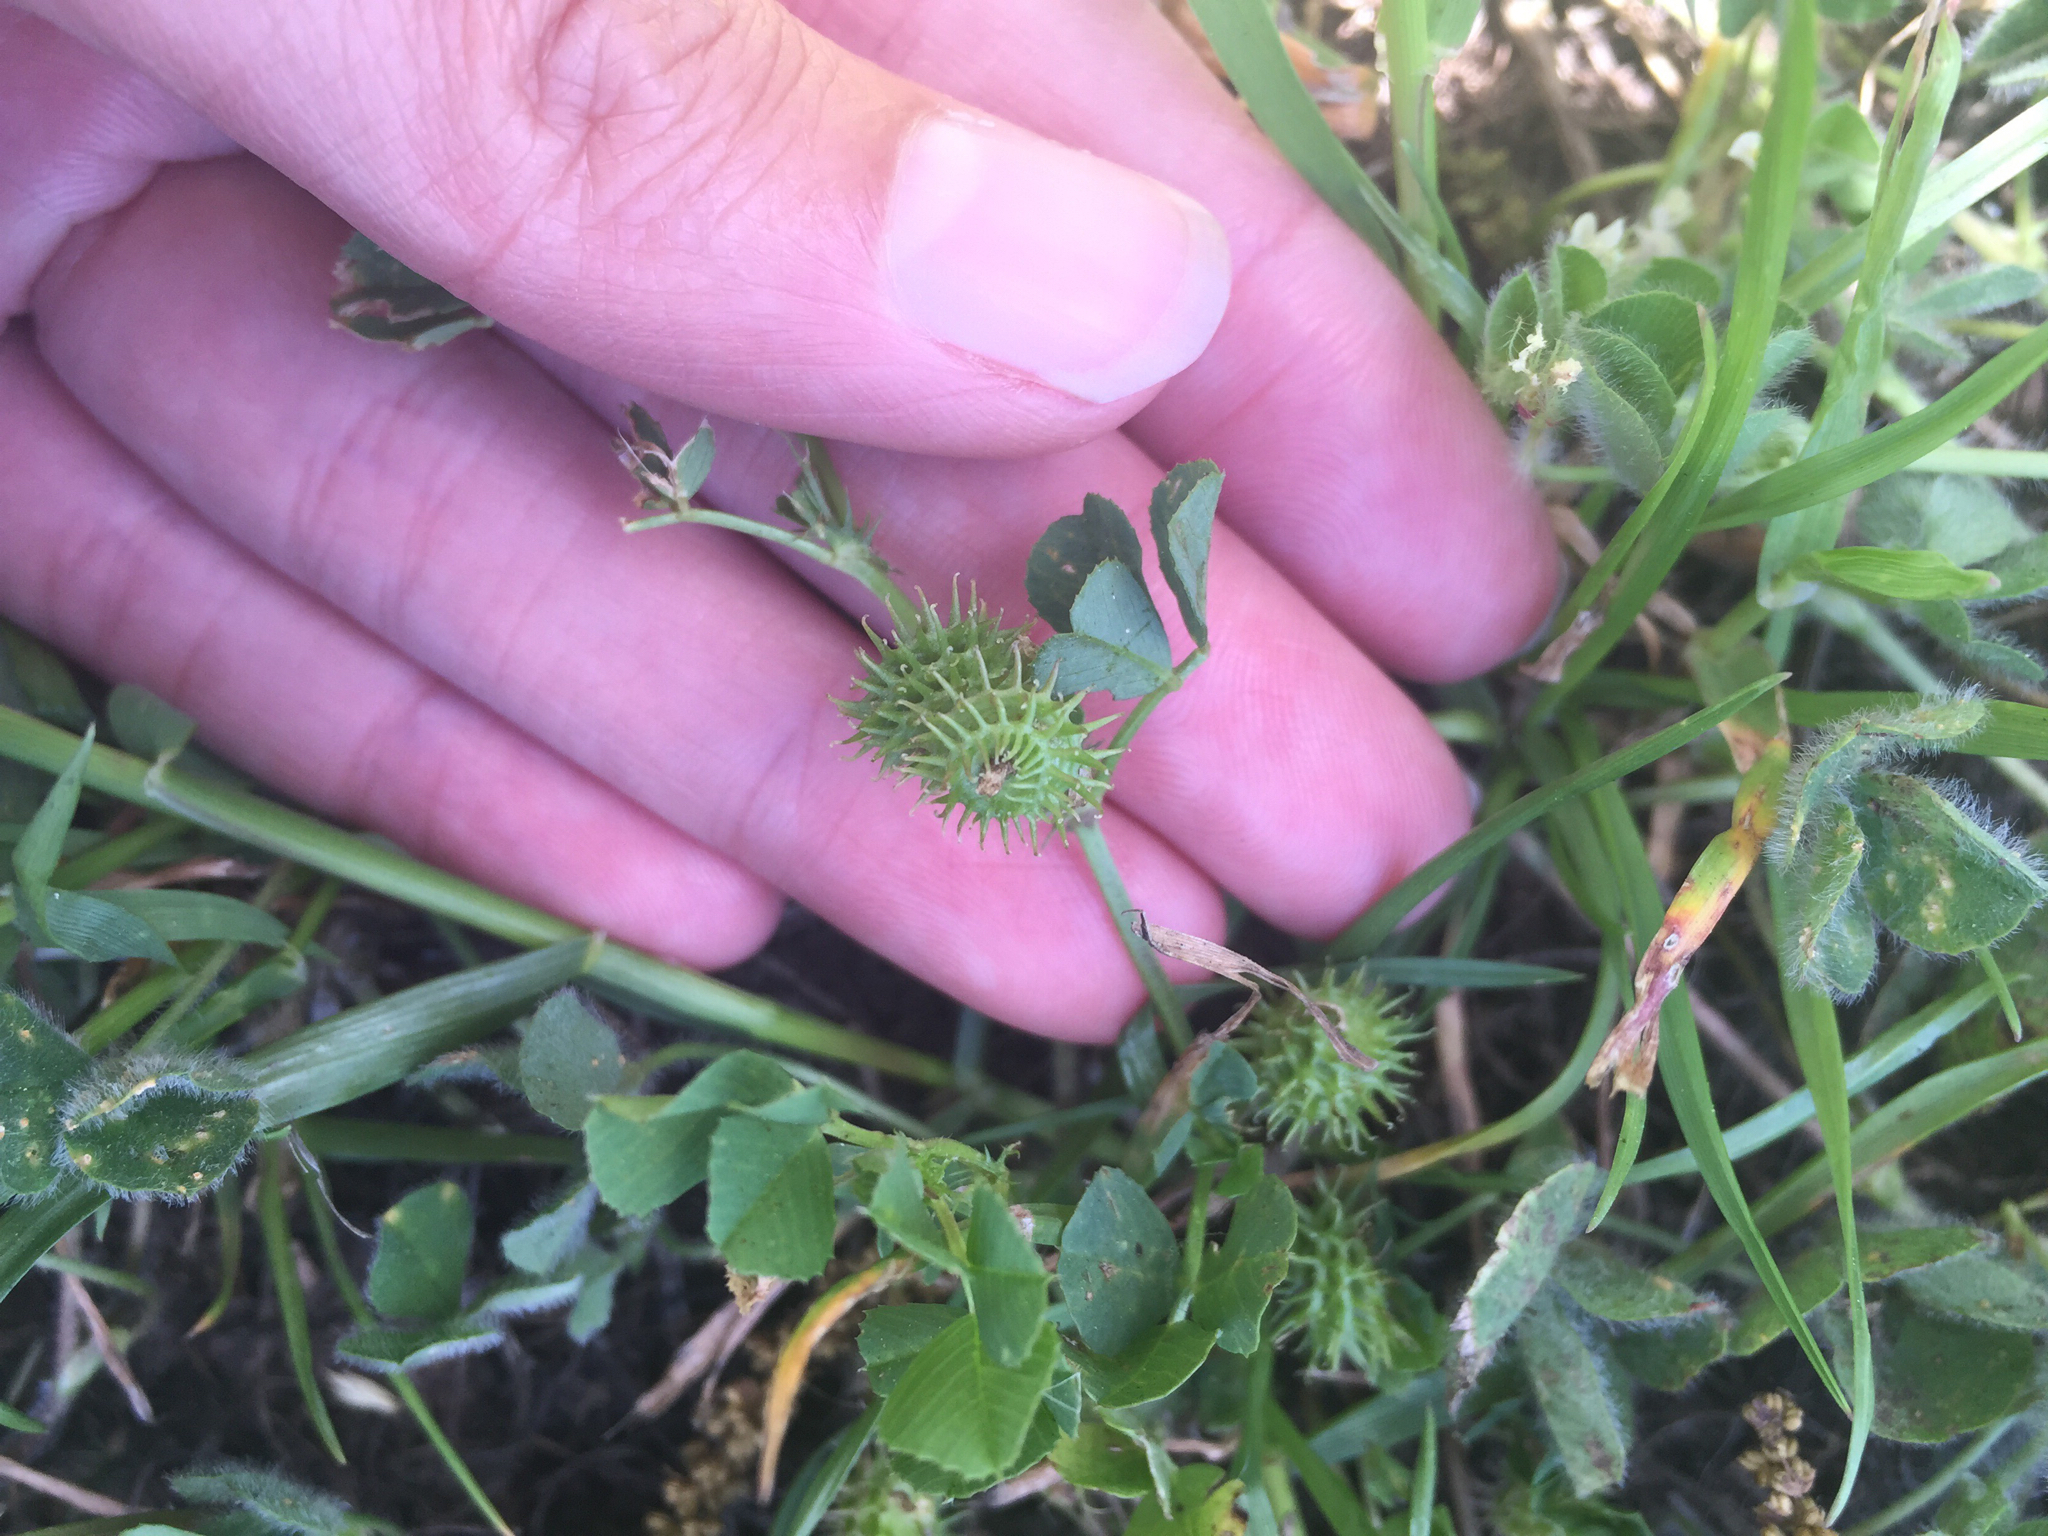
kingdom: Plantae
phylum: Tracheophyta
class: Magnoliopsida
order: Fabales
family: Fabaceae
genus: Medicago
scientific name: Medicago polymorpha
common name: Burclover
